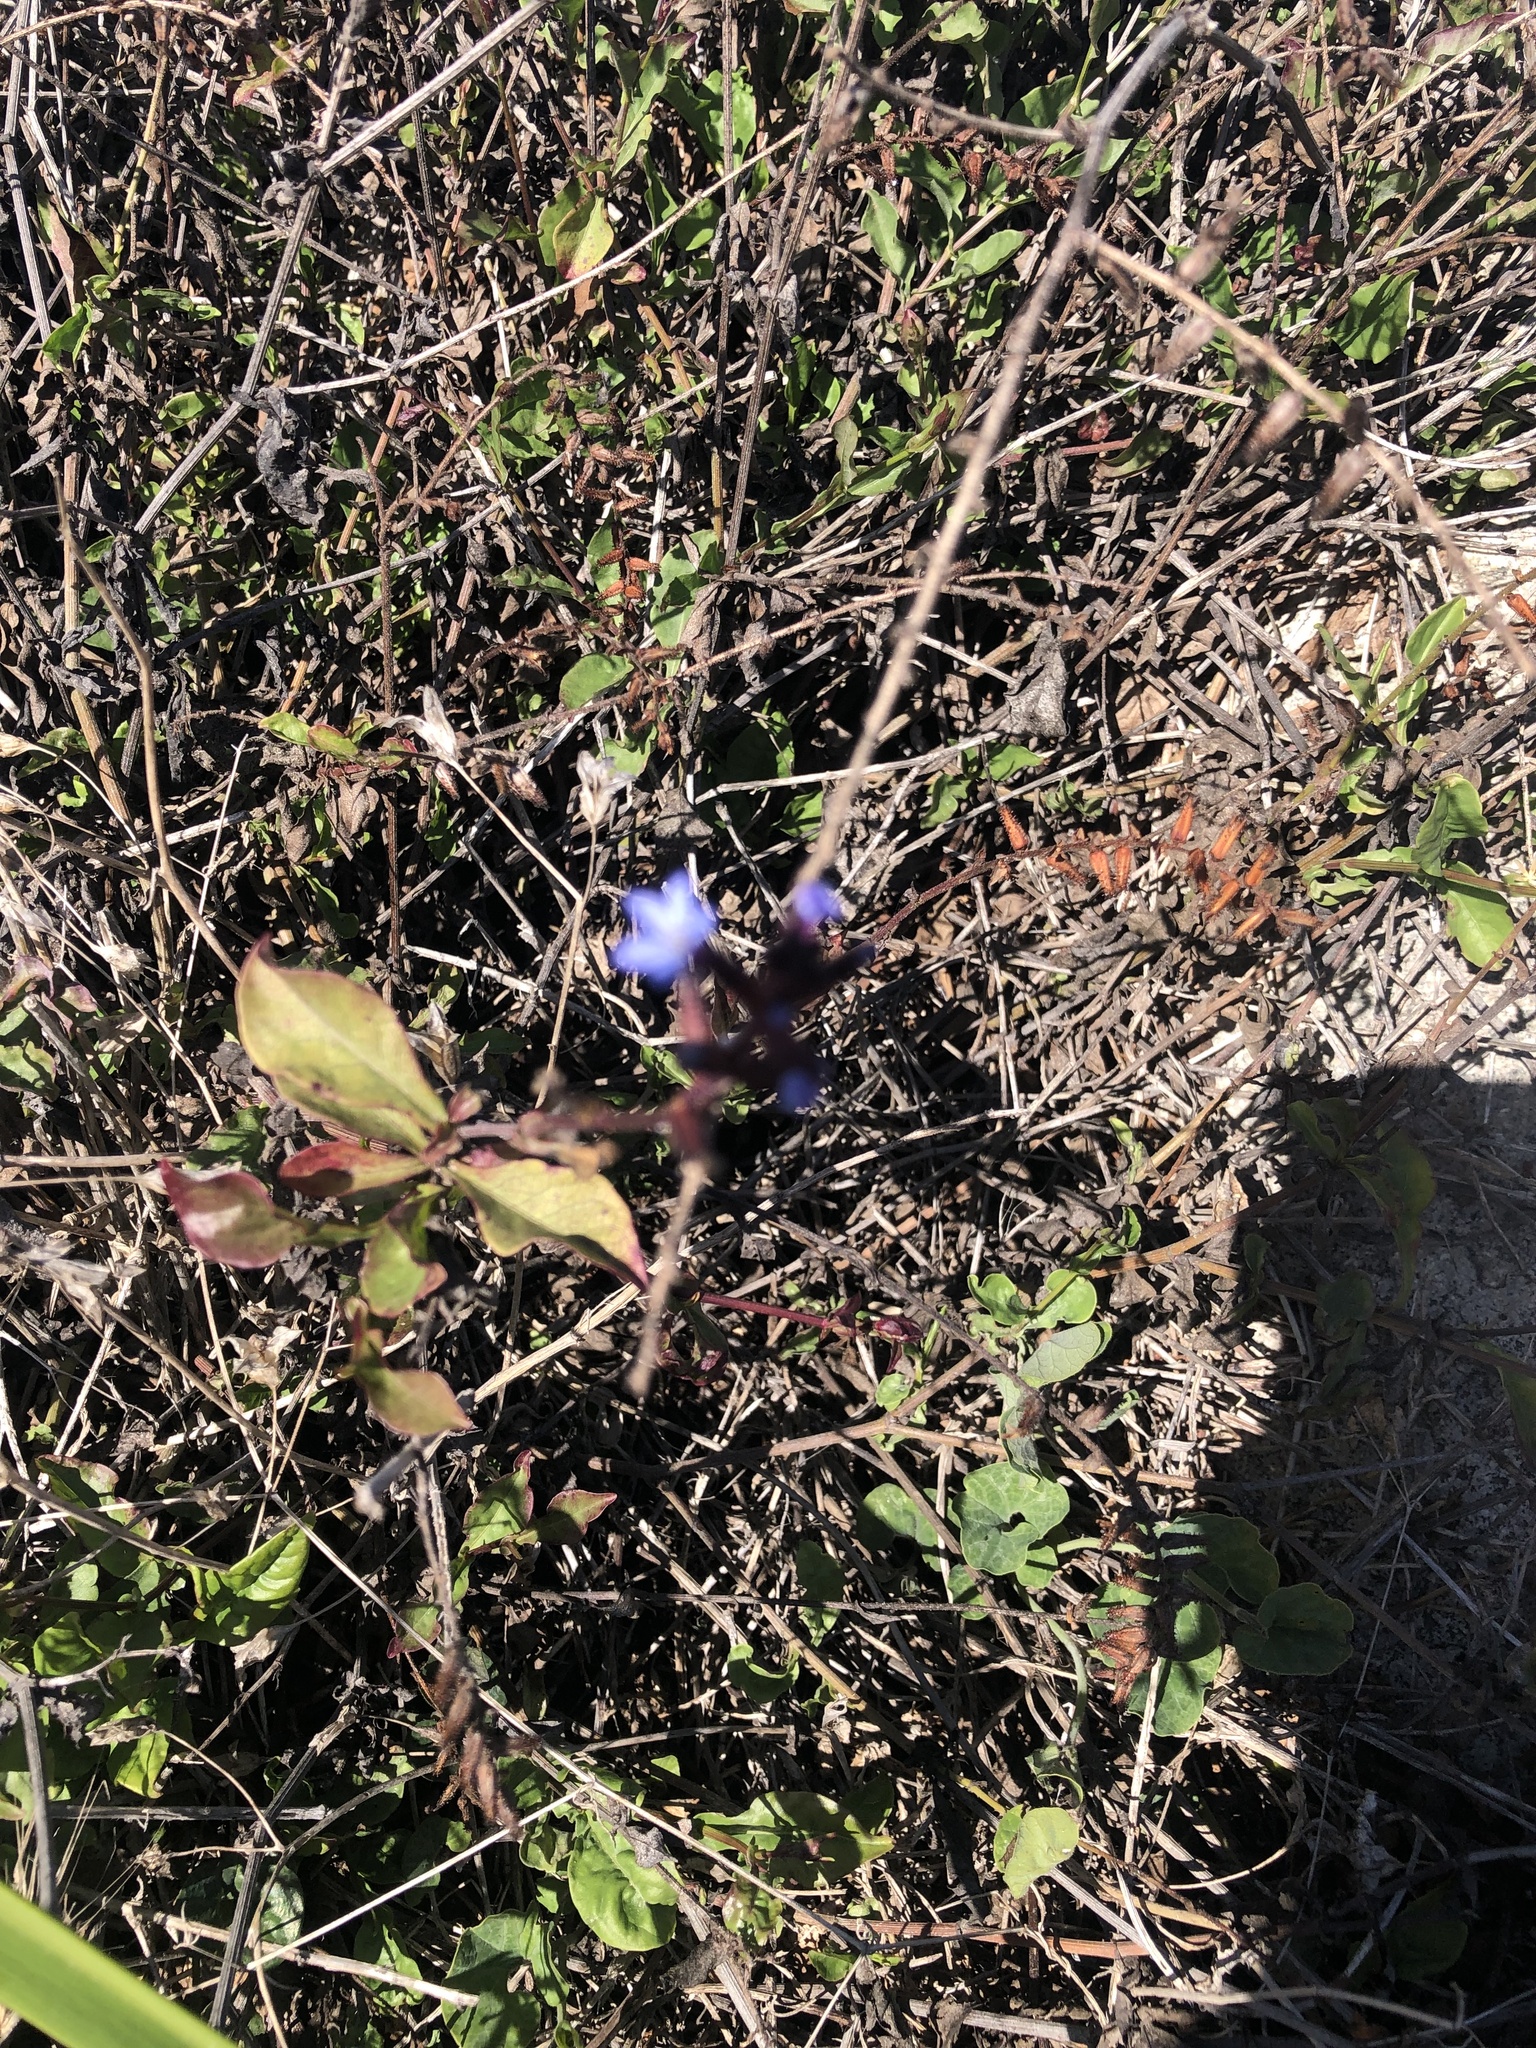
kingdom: Plantae
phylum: Tracheophyta
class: Magnoliopsida
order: Caryophyllales
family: Plumbaginaceae
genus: Plumbago
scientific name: Plumbago caerulea
